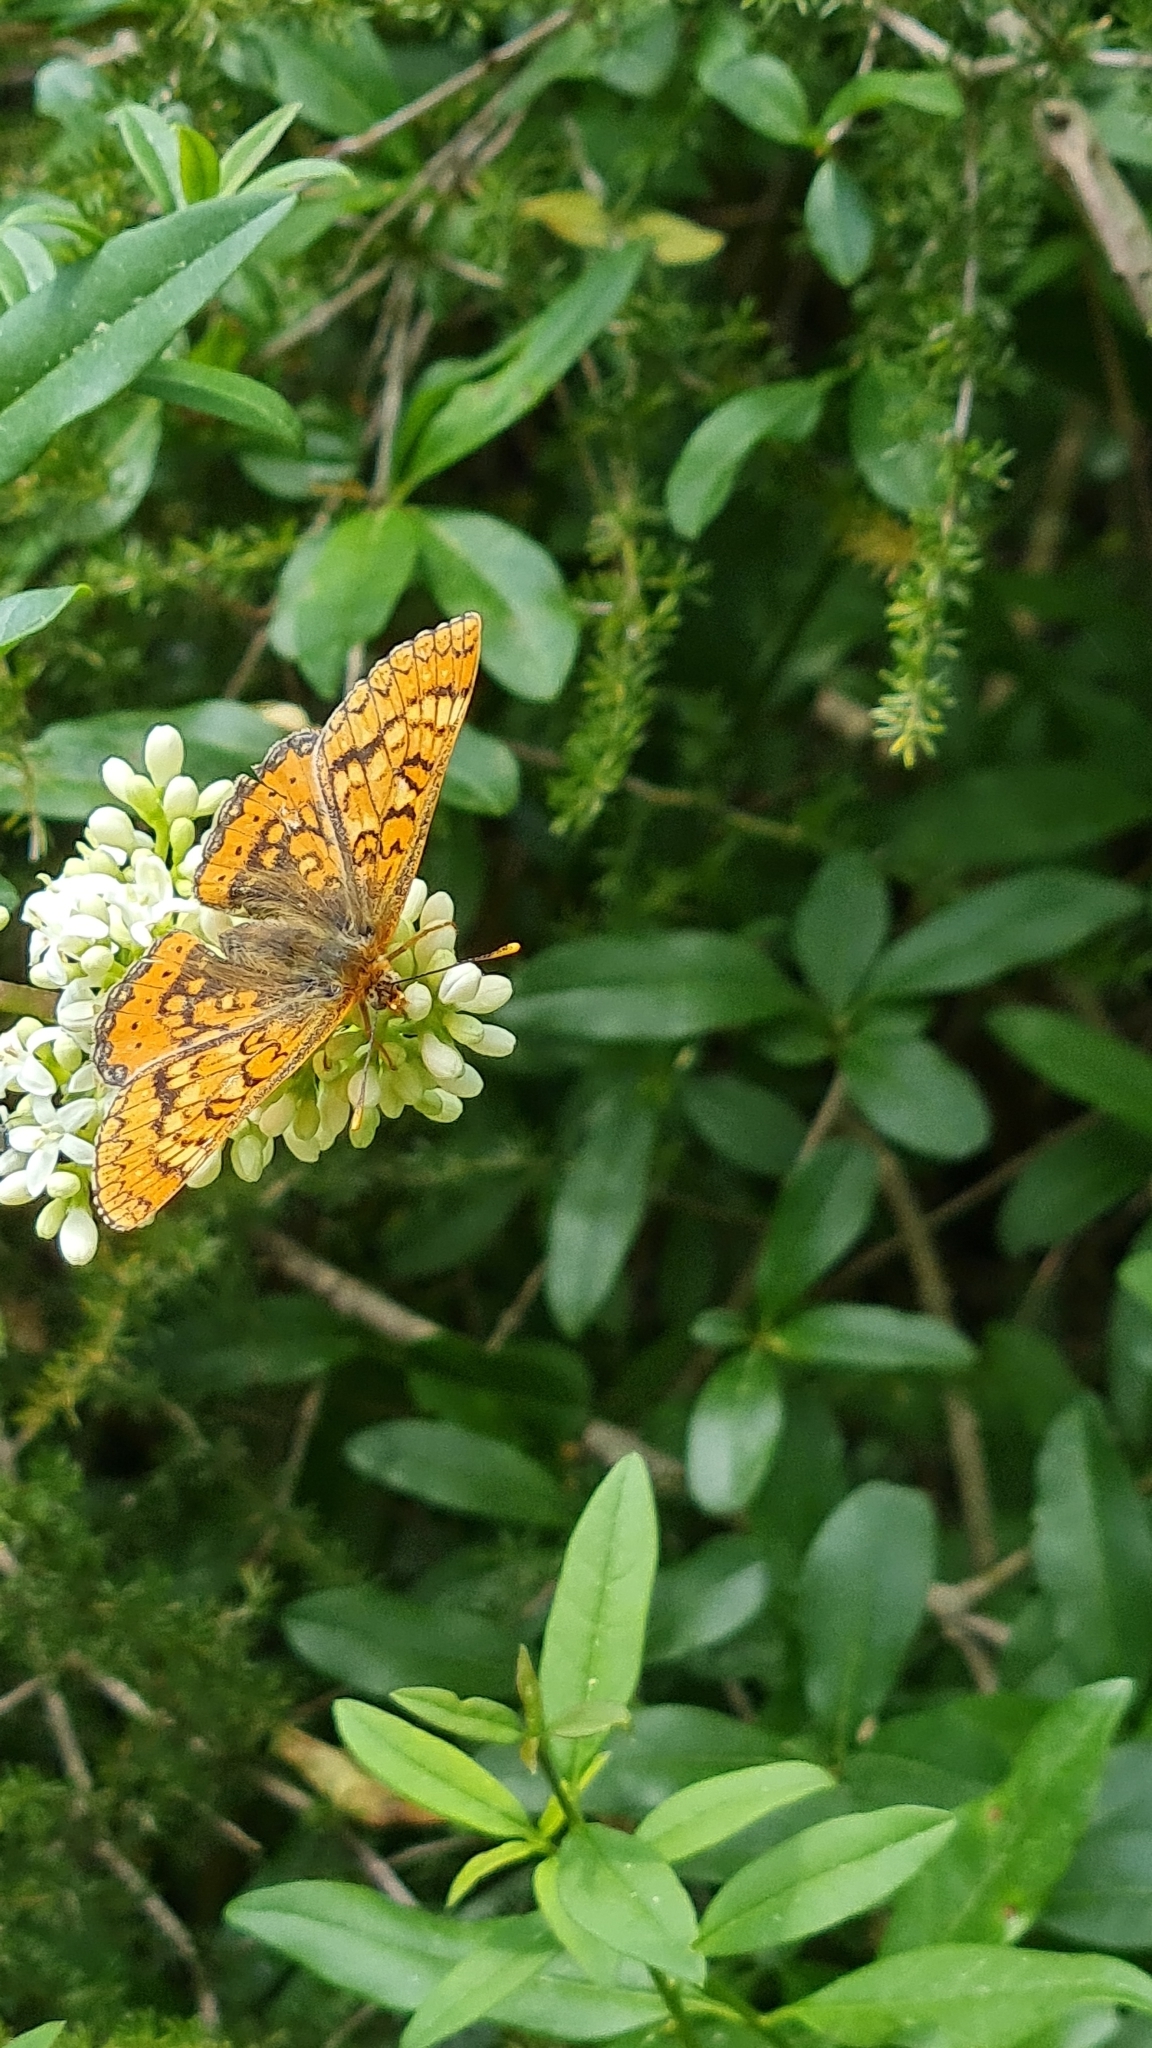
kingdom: Animalia
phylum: Arthropoda
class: Insecta
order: Lepidoptera
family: Nymphalidae
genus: Euphydryas
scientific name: Euphydryas aurinia
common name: Marsh fritillary
